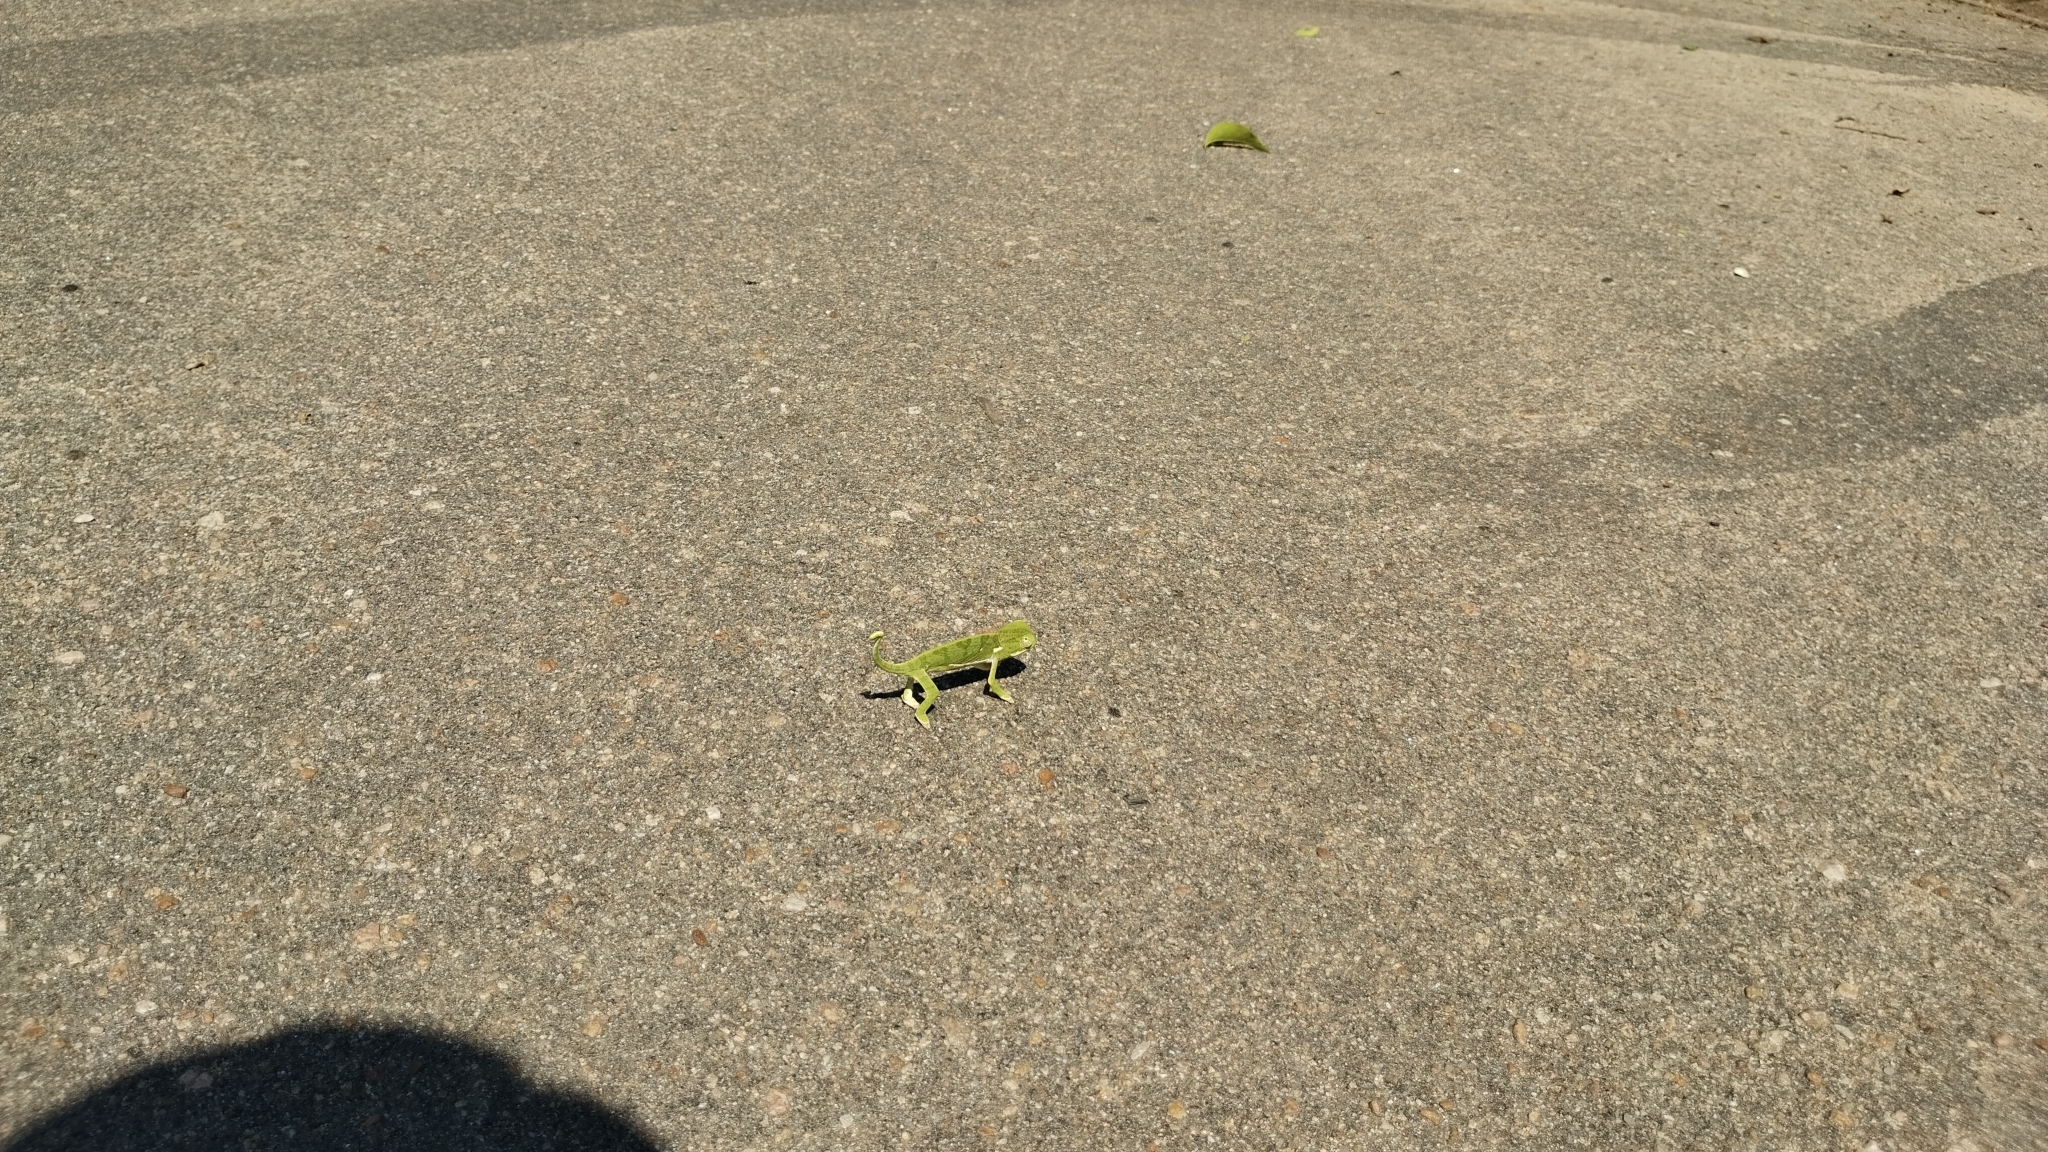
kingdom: Animalia
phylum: Chordata
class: Squamata
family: Chamaeleonidae
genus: Chamaeleo
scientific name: Chamaeleo dilepis
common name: Flapneck chameleon
